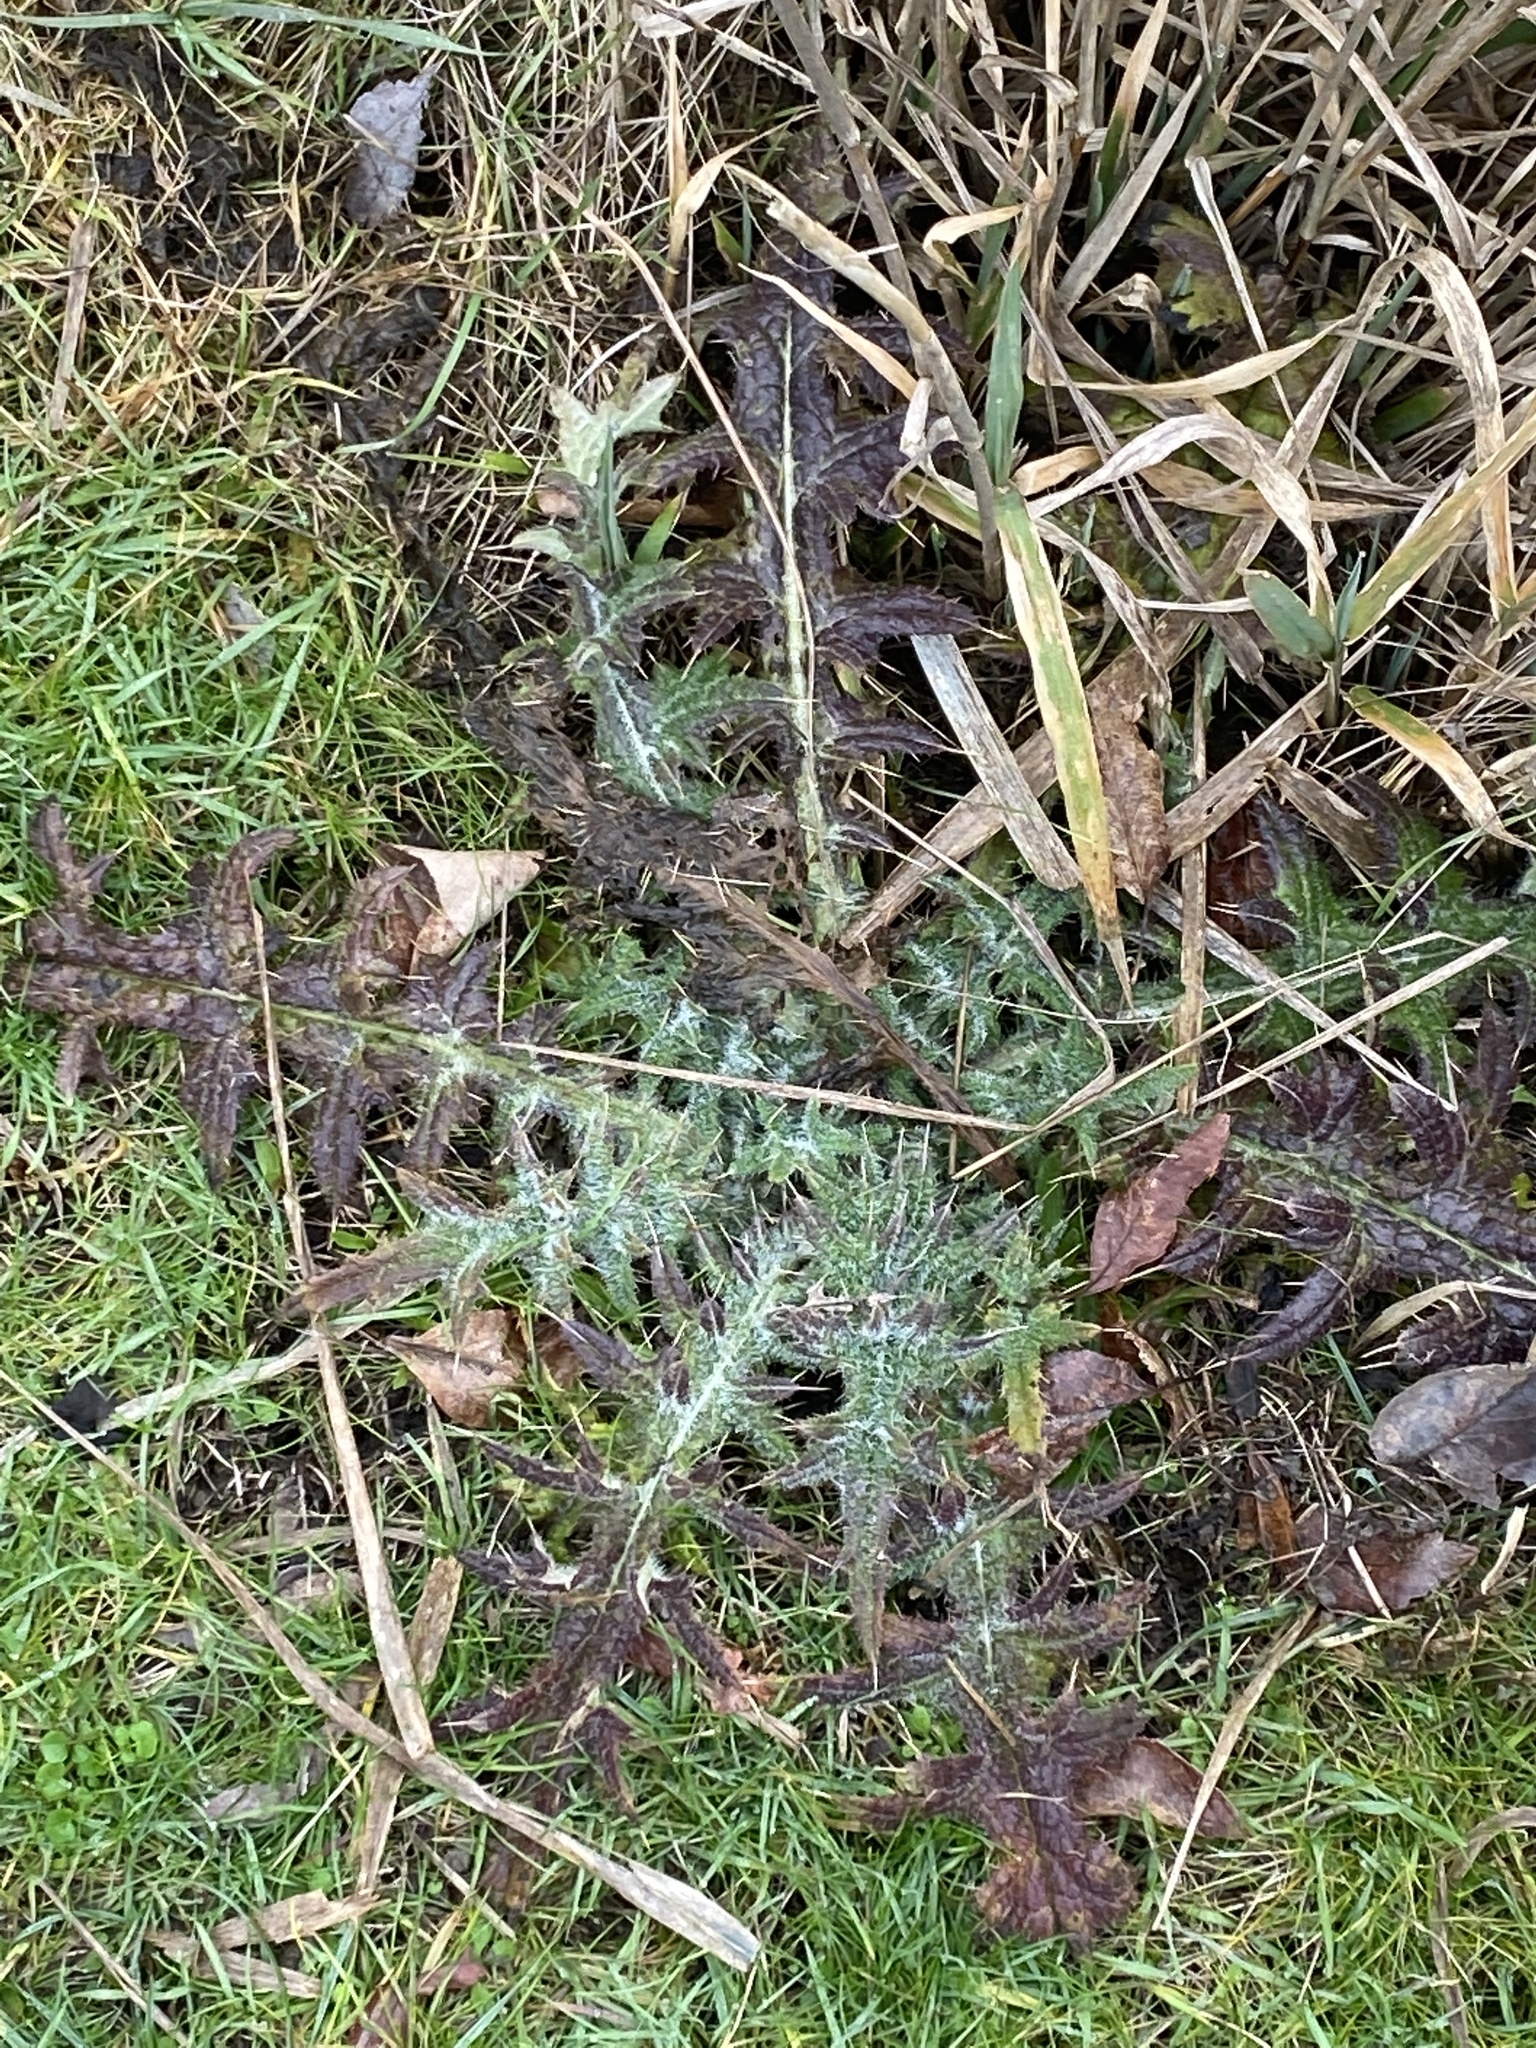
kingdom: Plantae
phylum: Tracheophyta
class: Magnoliopsida
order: Asterales
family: Asteraceae
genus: Cirsium
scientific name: Cirsium vulgare
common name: Bull thistle
